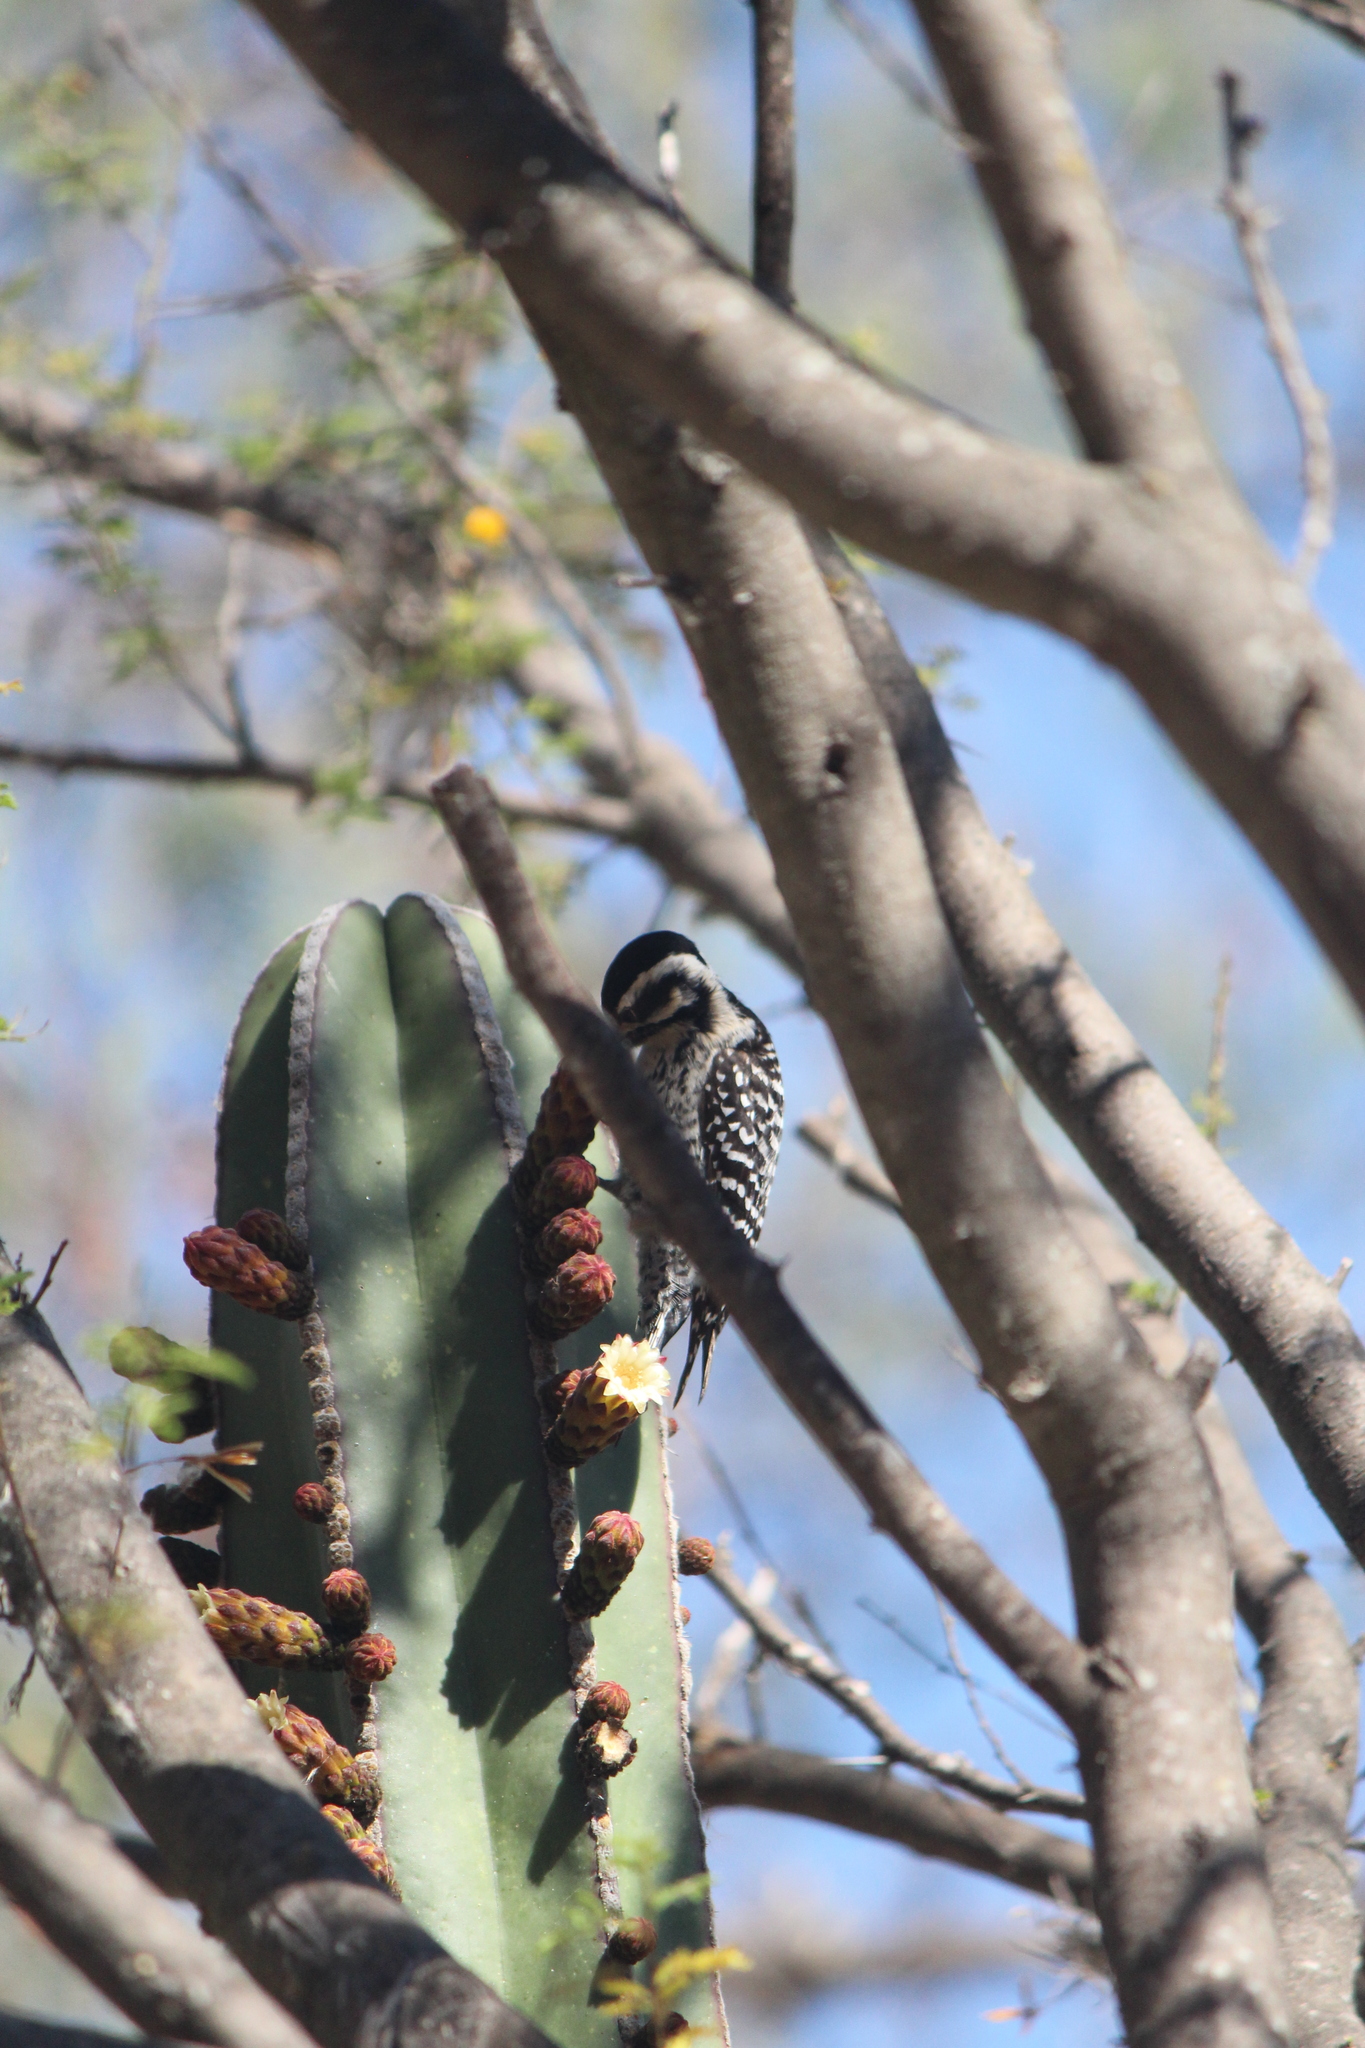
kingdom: Animalia
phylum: Chordata
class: Aves
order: Piciformes
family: Picidae
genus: Dryobates
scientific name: Dryobates scalaris
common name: Ladder-backed woodpecker
